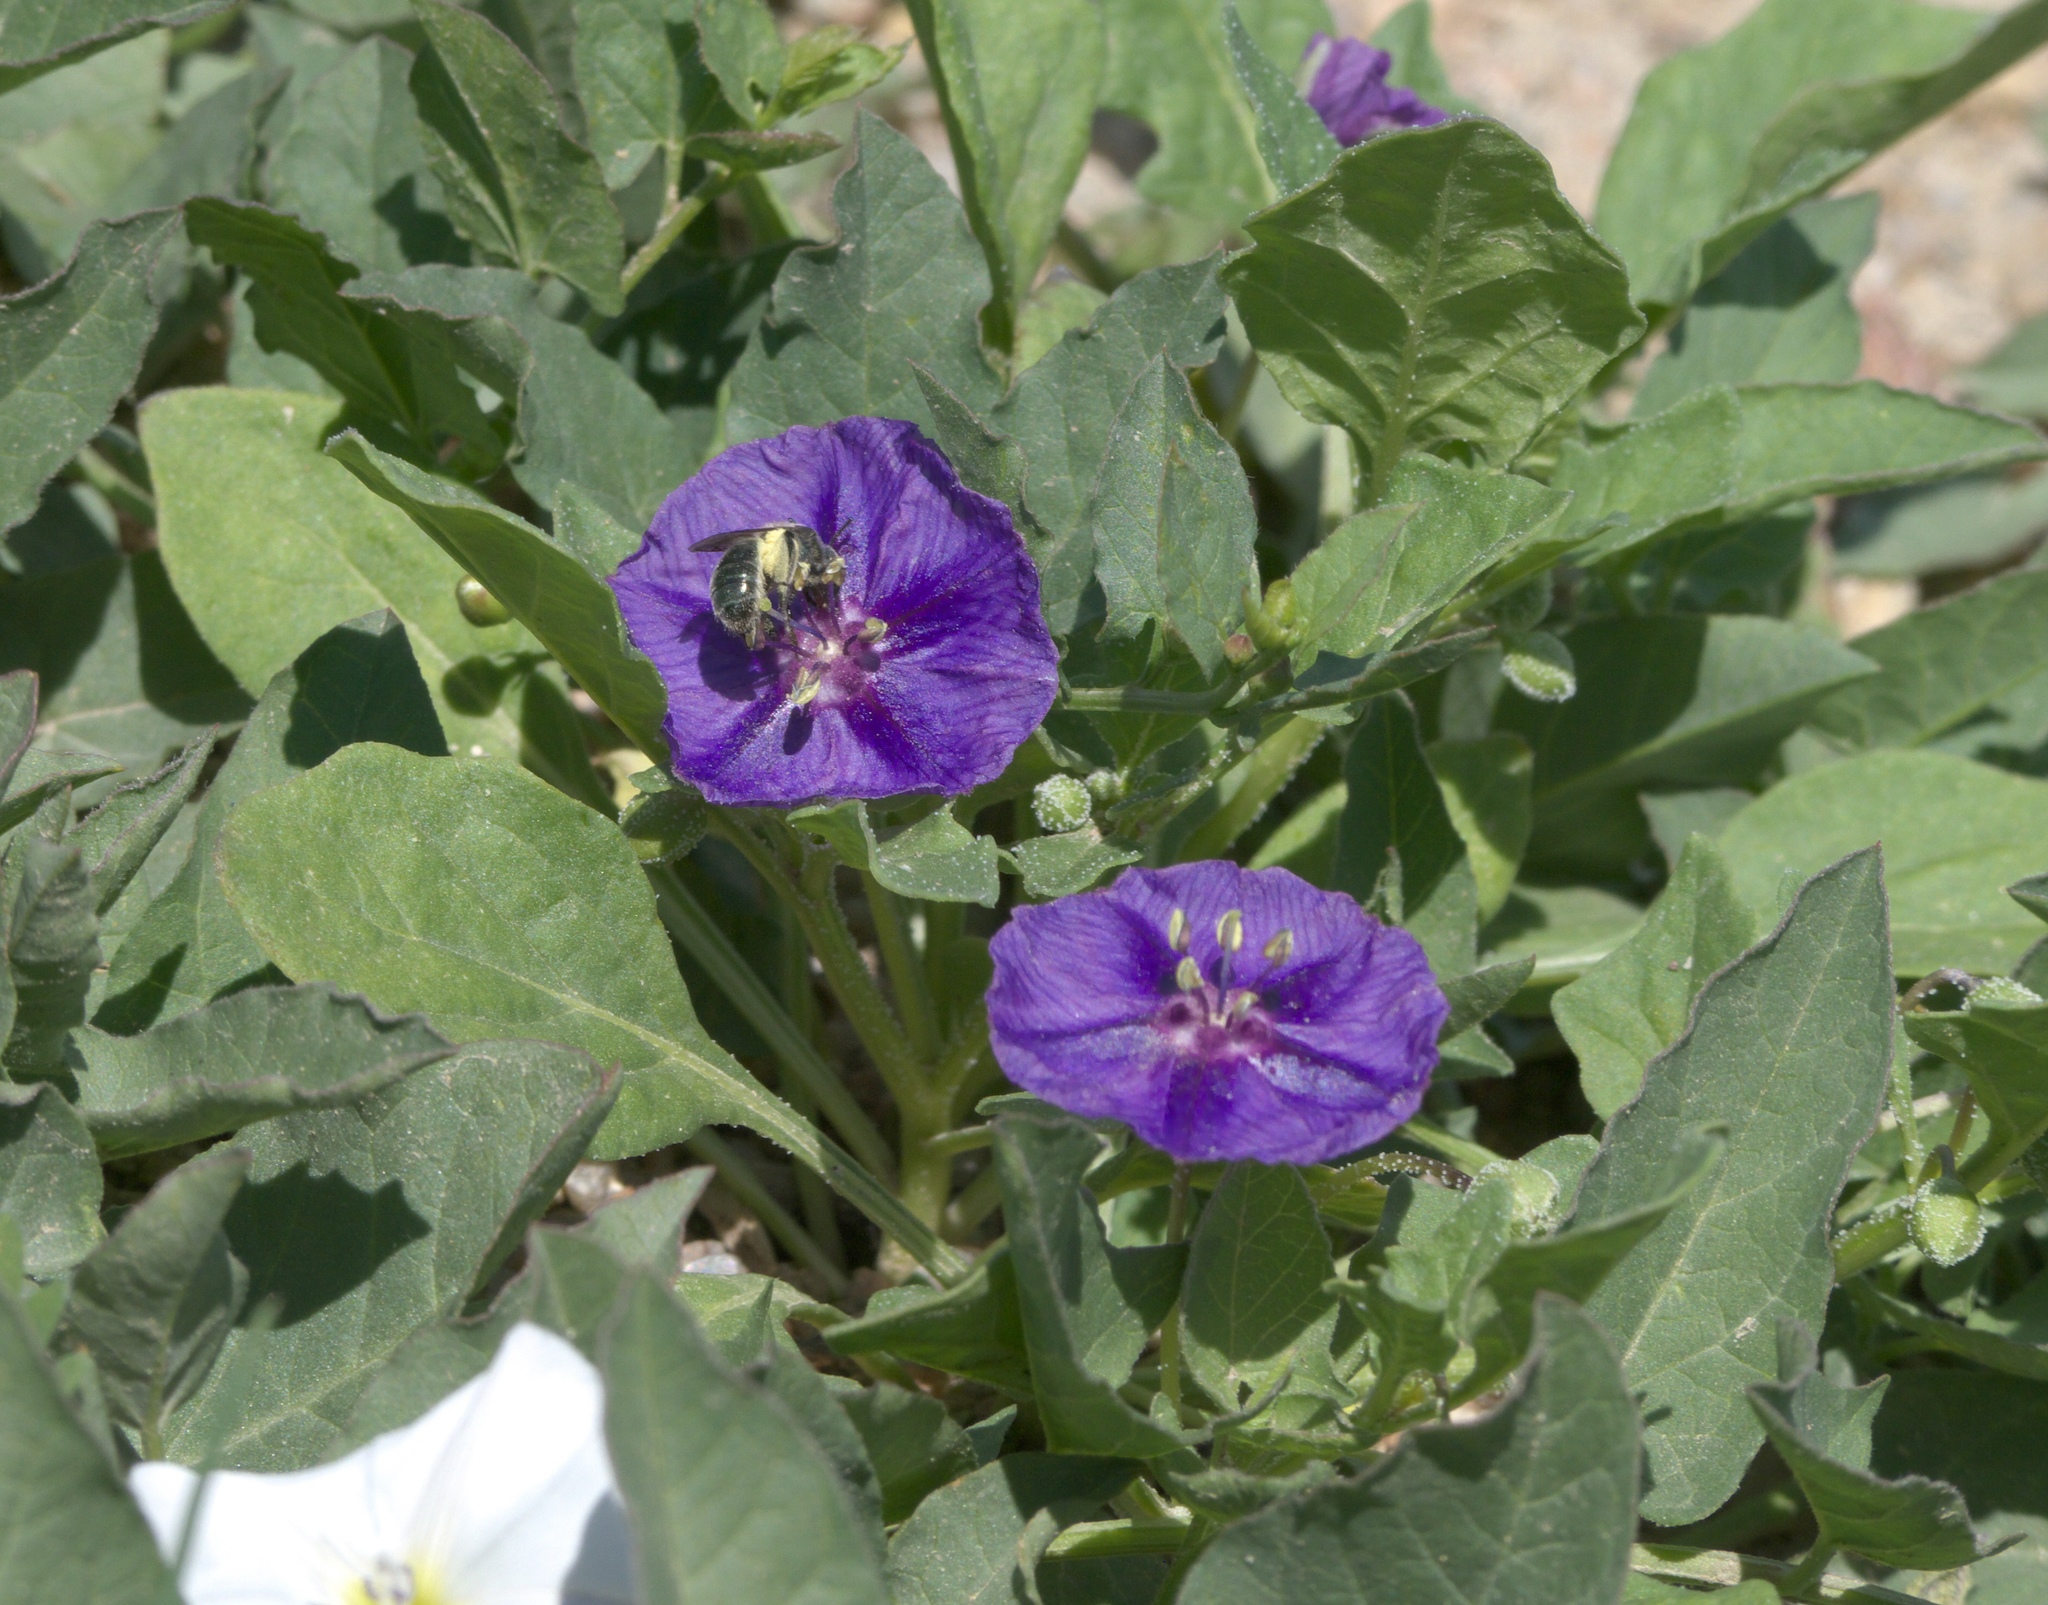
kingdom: Plantae
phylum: Tracheophyta
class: Magnoliopsida
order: Solanales
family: Solanaceae
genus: Quincula
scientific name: Quincula lobata
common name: Purple-ground-cherry
